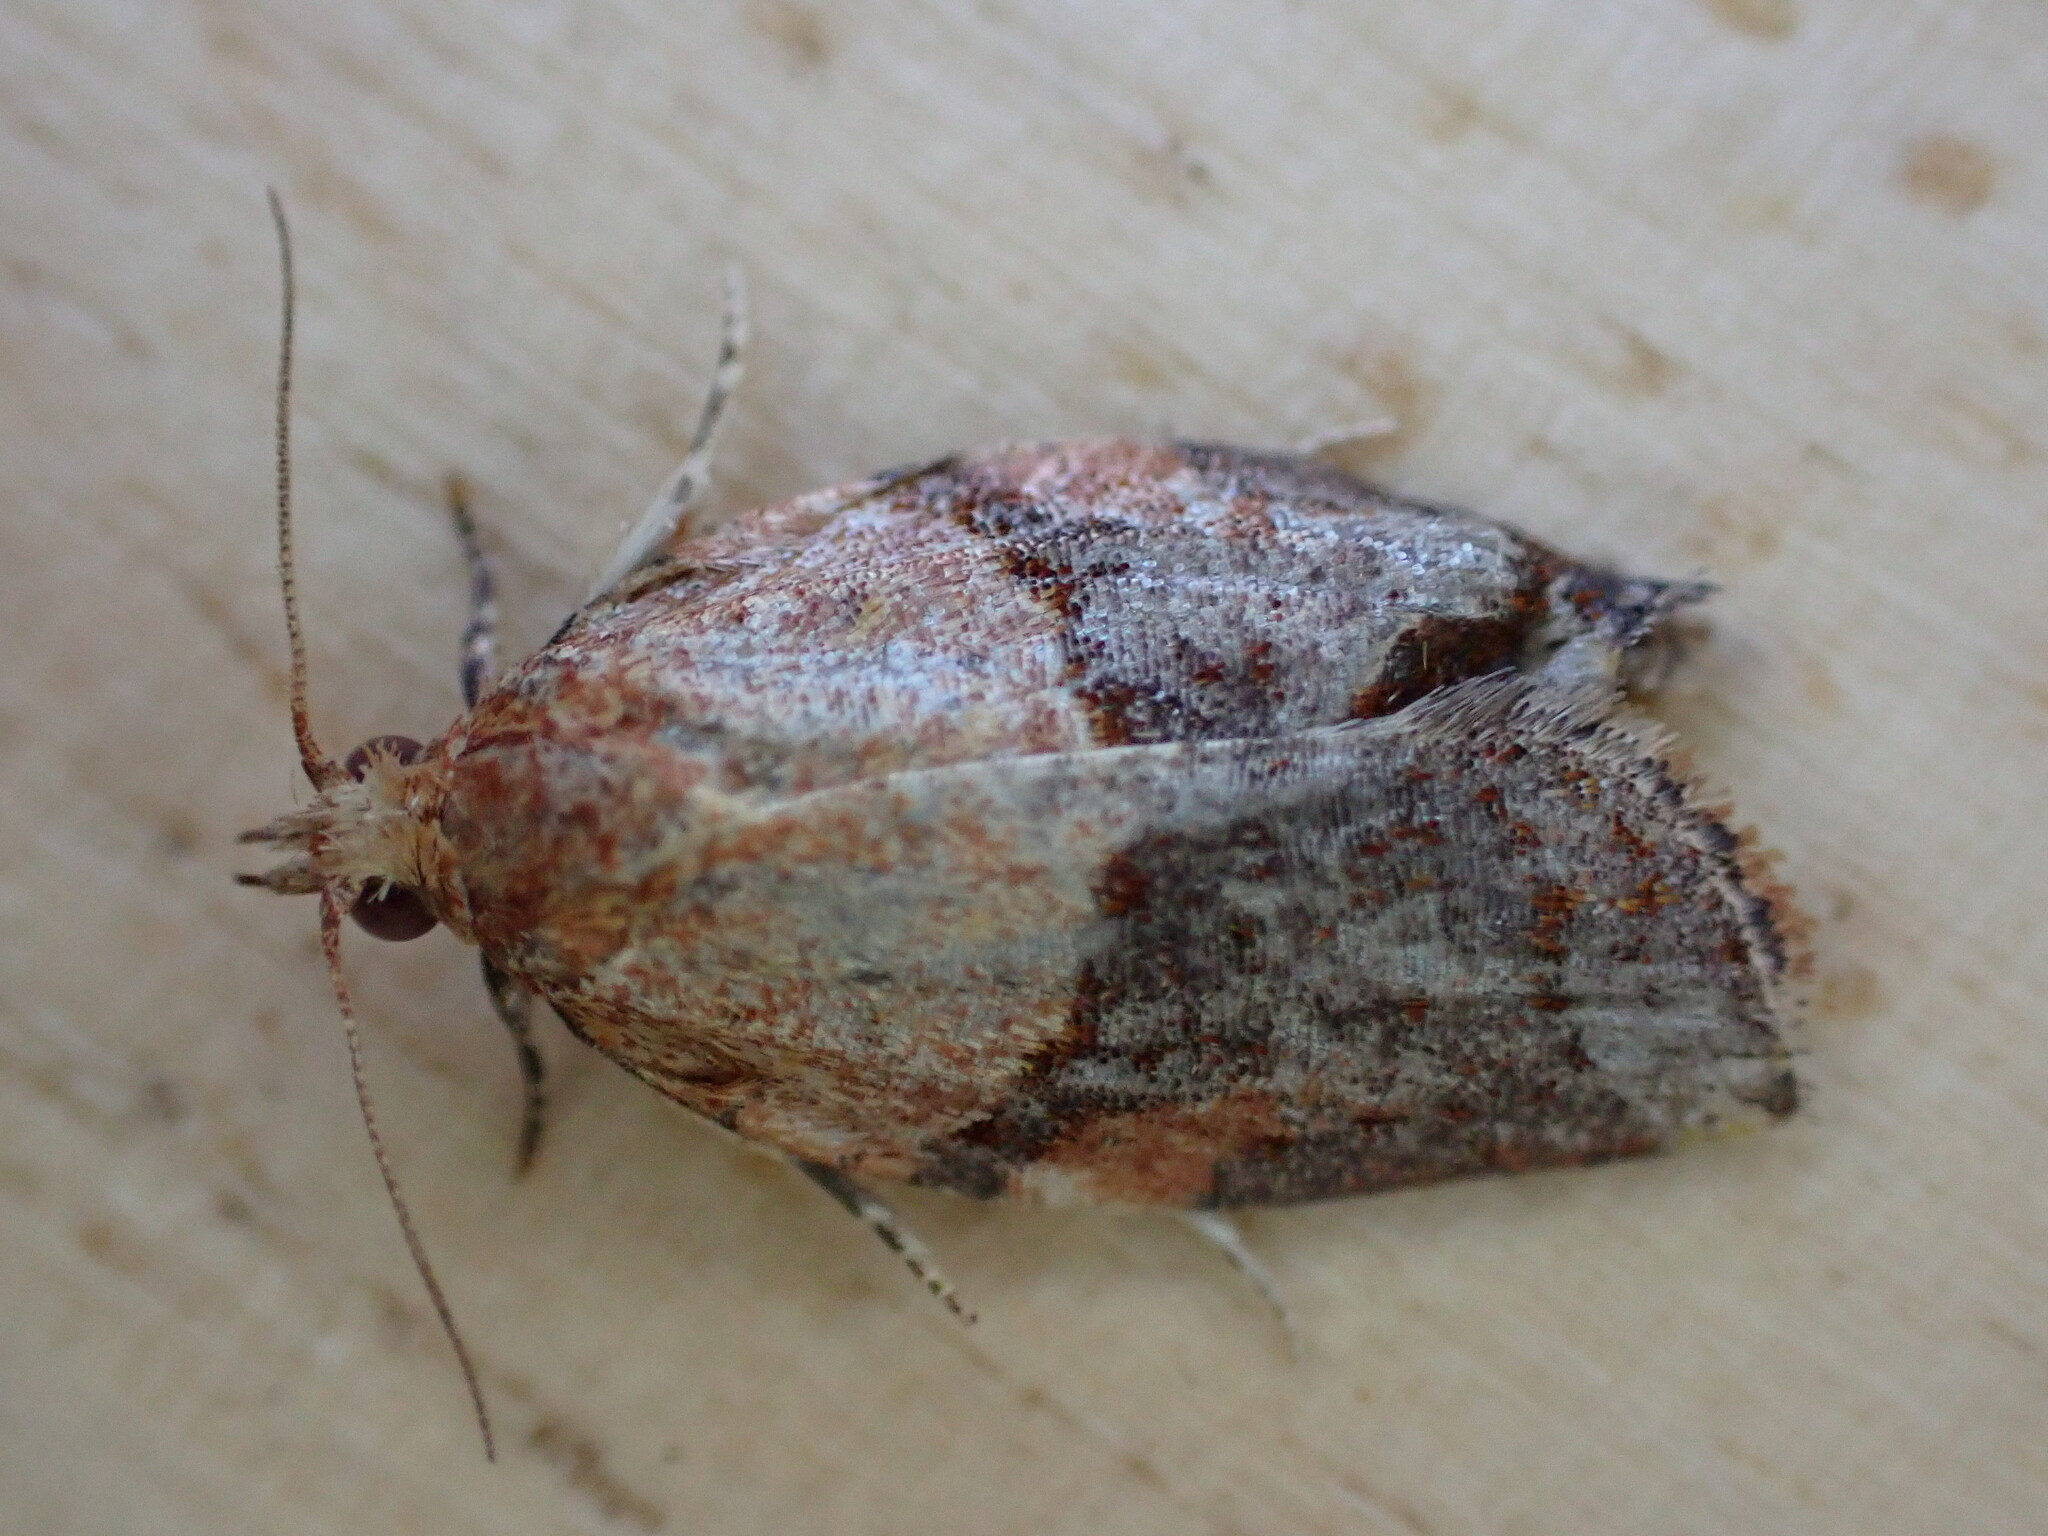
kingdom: Animalia
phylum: Arthropoda
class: Insecta
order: Lepidoptera
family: Tortricidae
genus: Epiphyas
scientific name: Epiphyas postvittana
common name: Light brown apple moth
